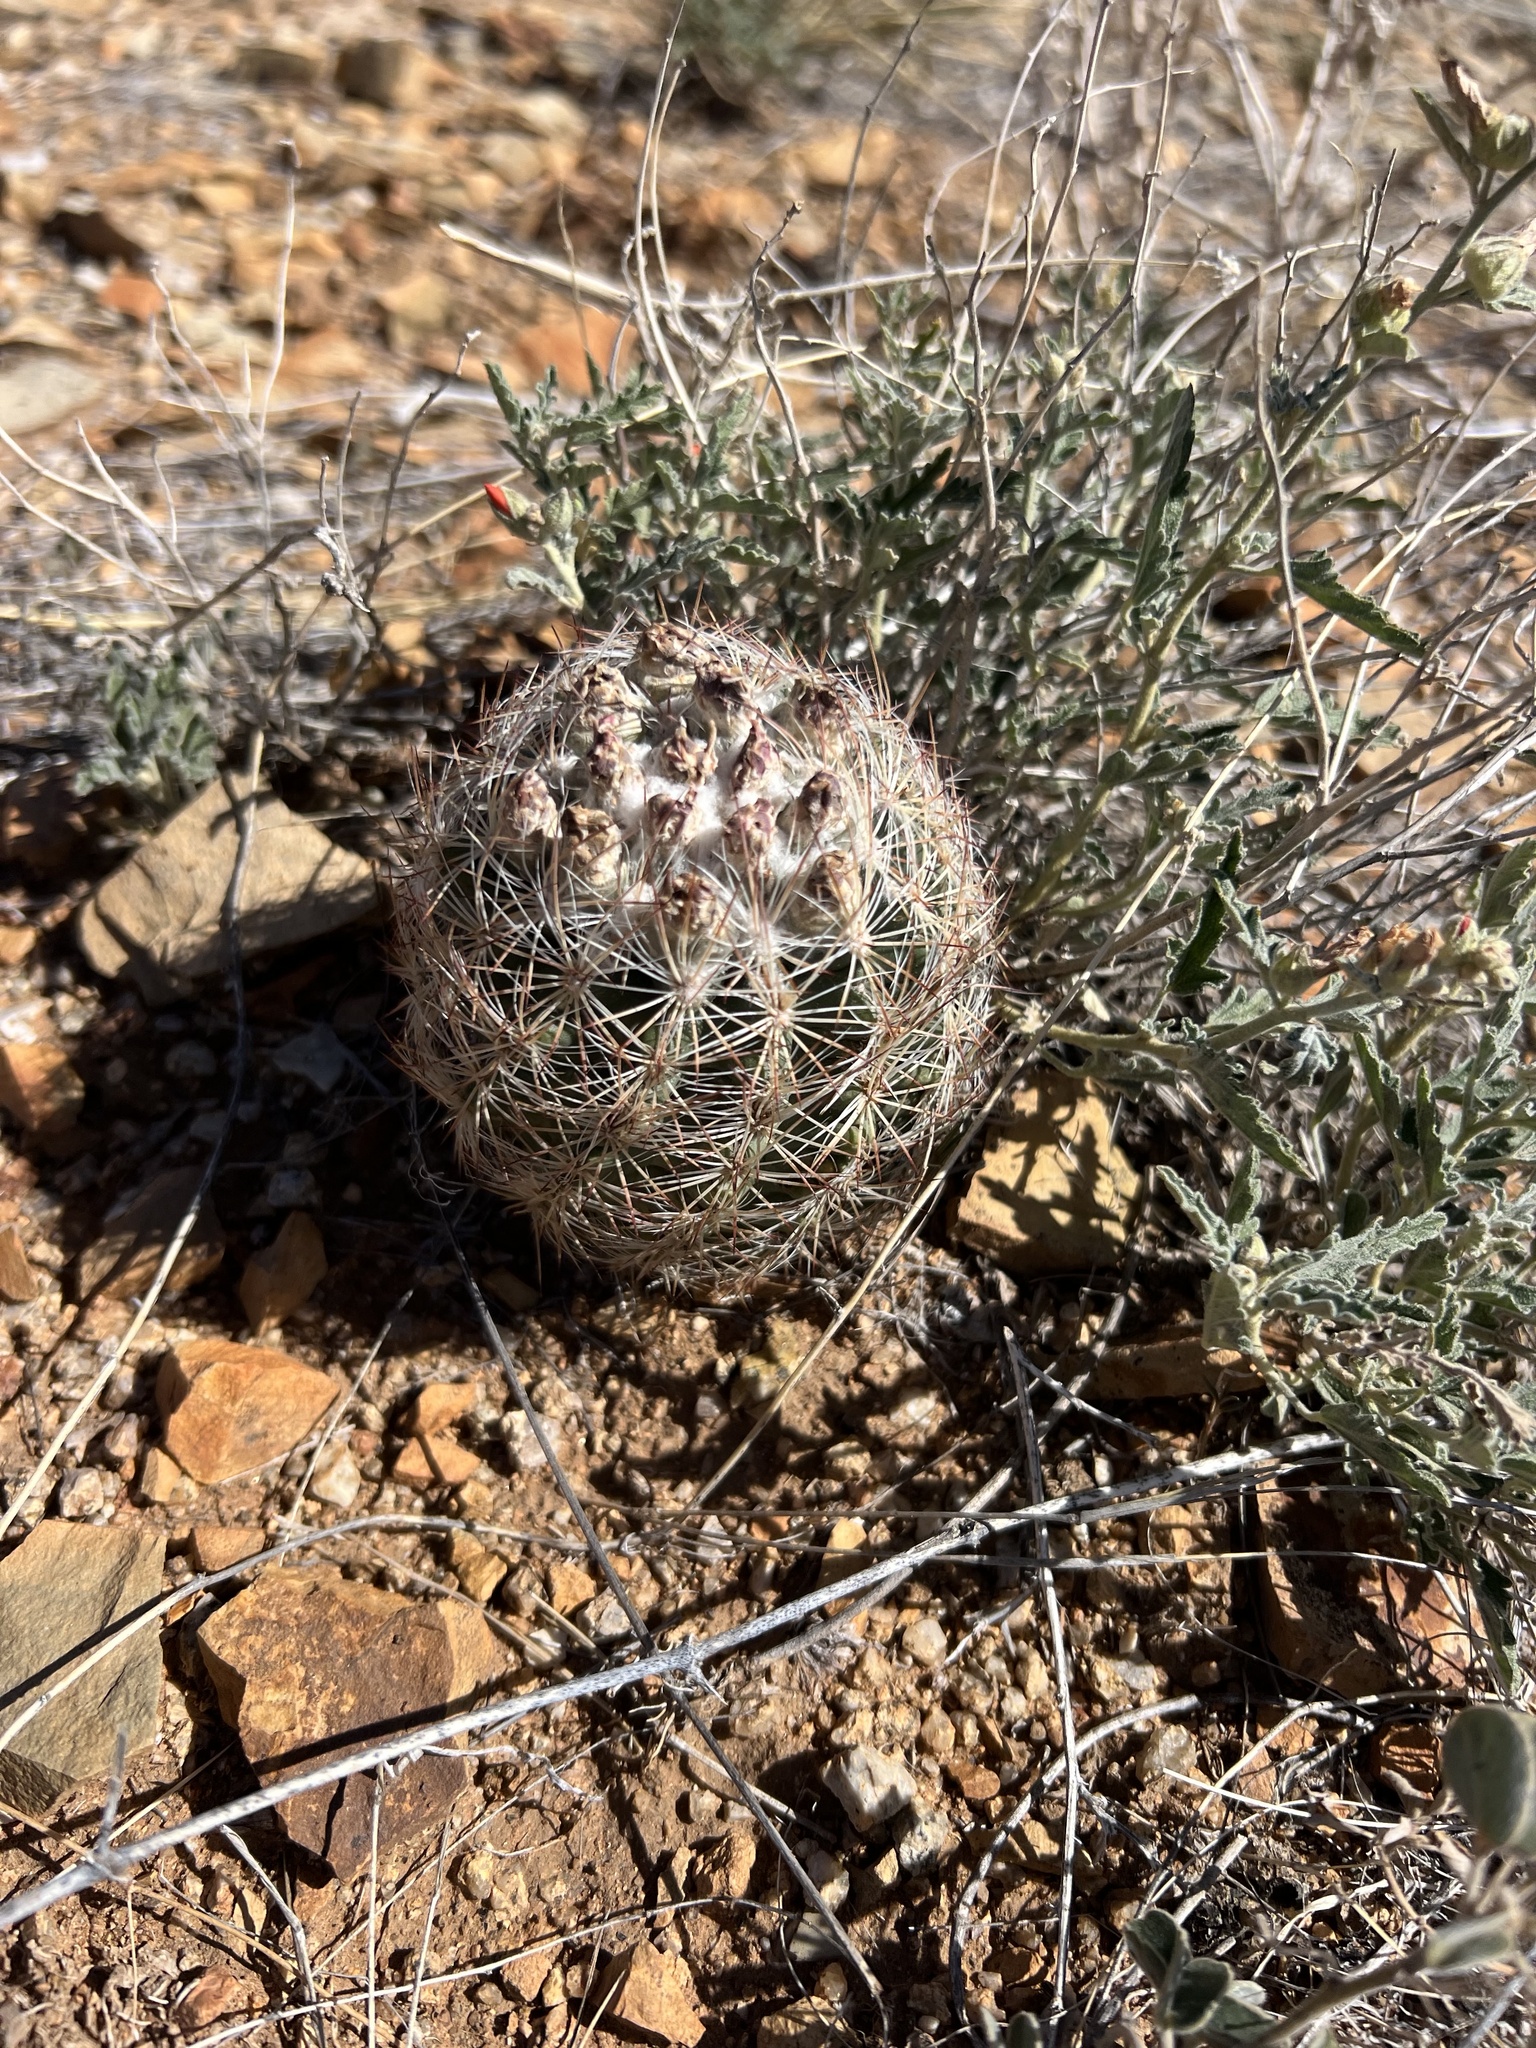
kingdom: Plantae
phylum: Tracheophyta
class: Magnoliopsida
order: Caryophyllales
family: Cactaceae
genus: Sclerocactus
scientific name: Sclerocactus intertextus
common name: White fish-hook cactus
